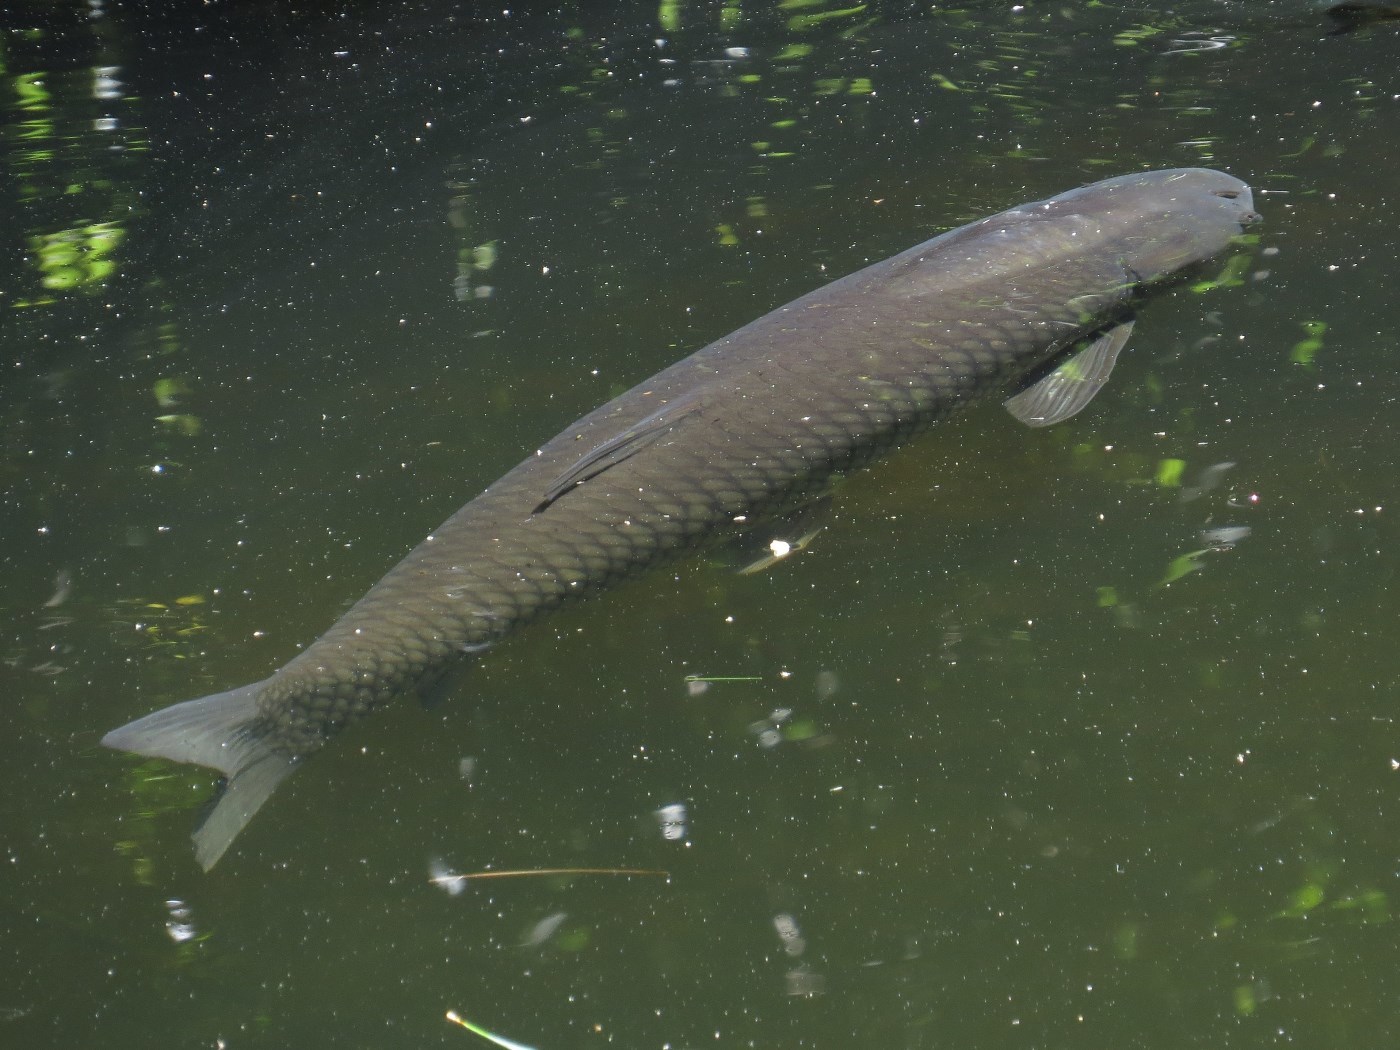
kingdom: Animalia
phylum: Chordata
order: Cypriniformes
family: Cyprinidae
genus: Ctenopharyngodon
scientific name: Ctenopharyngodon idella
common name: Grass carp
